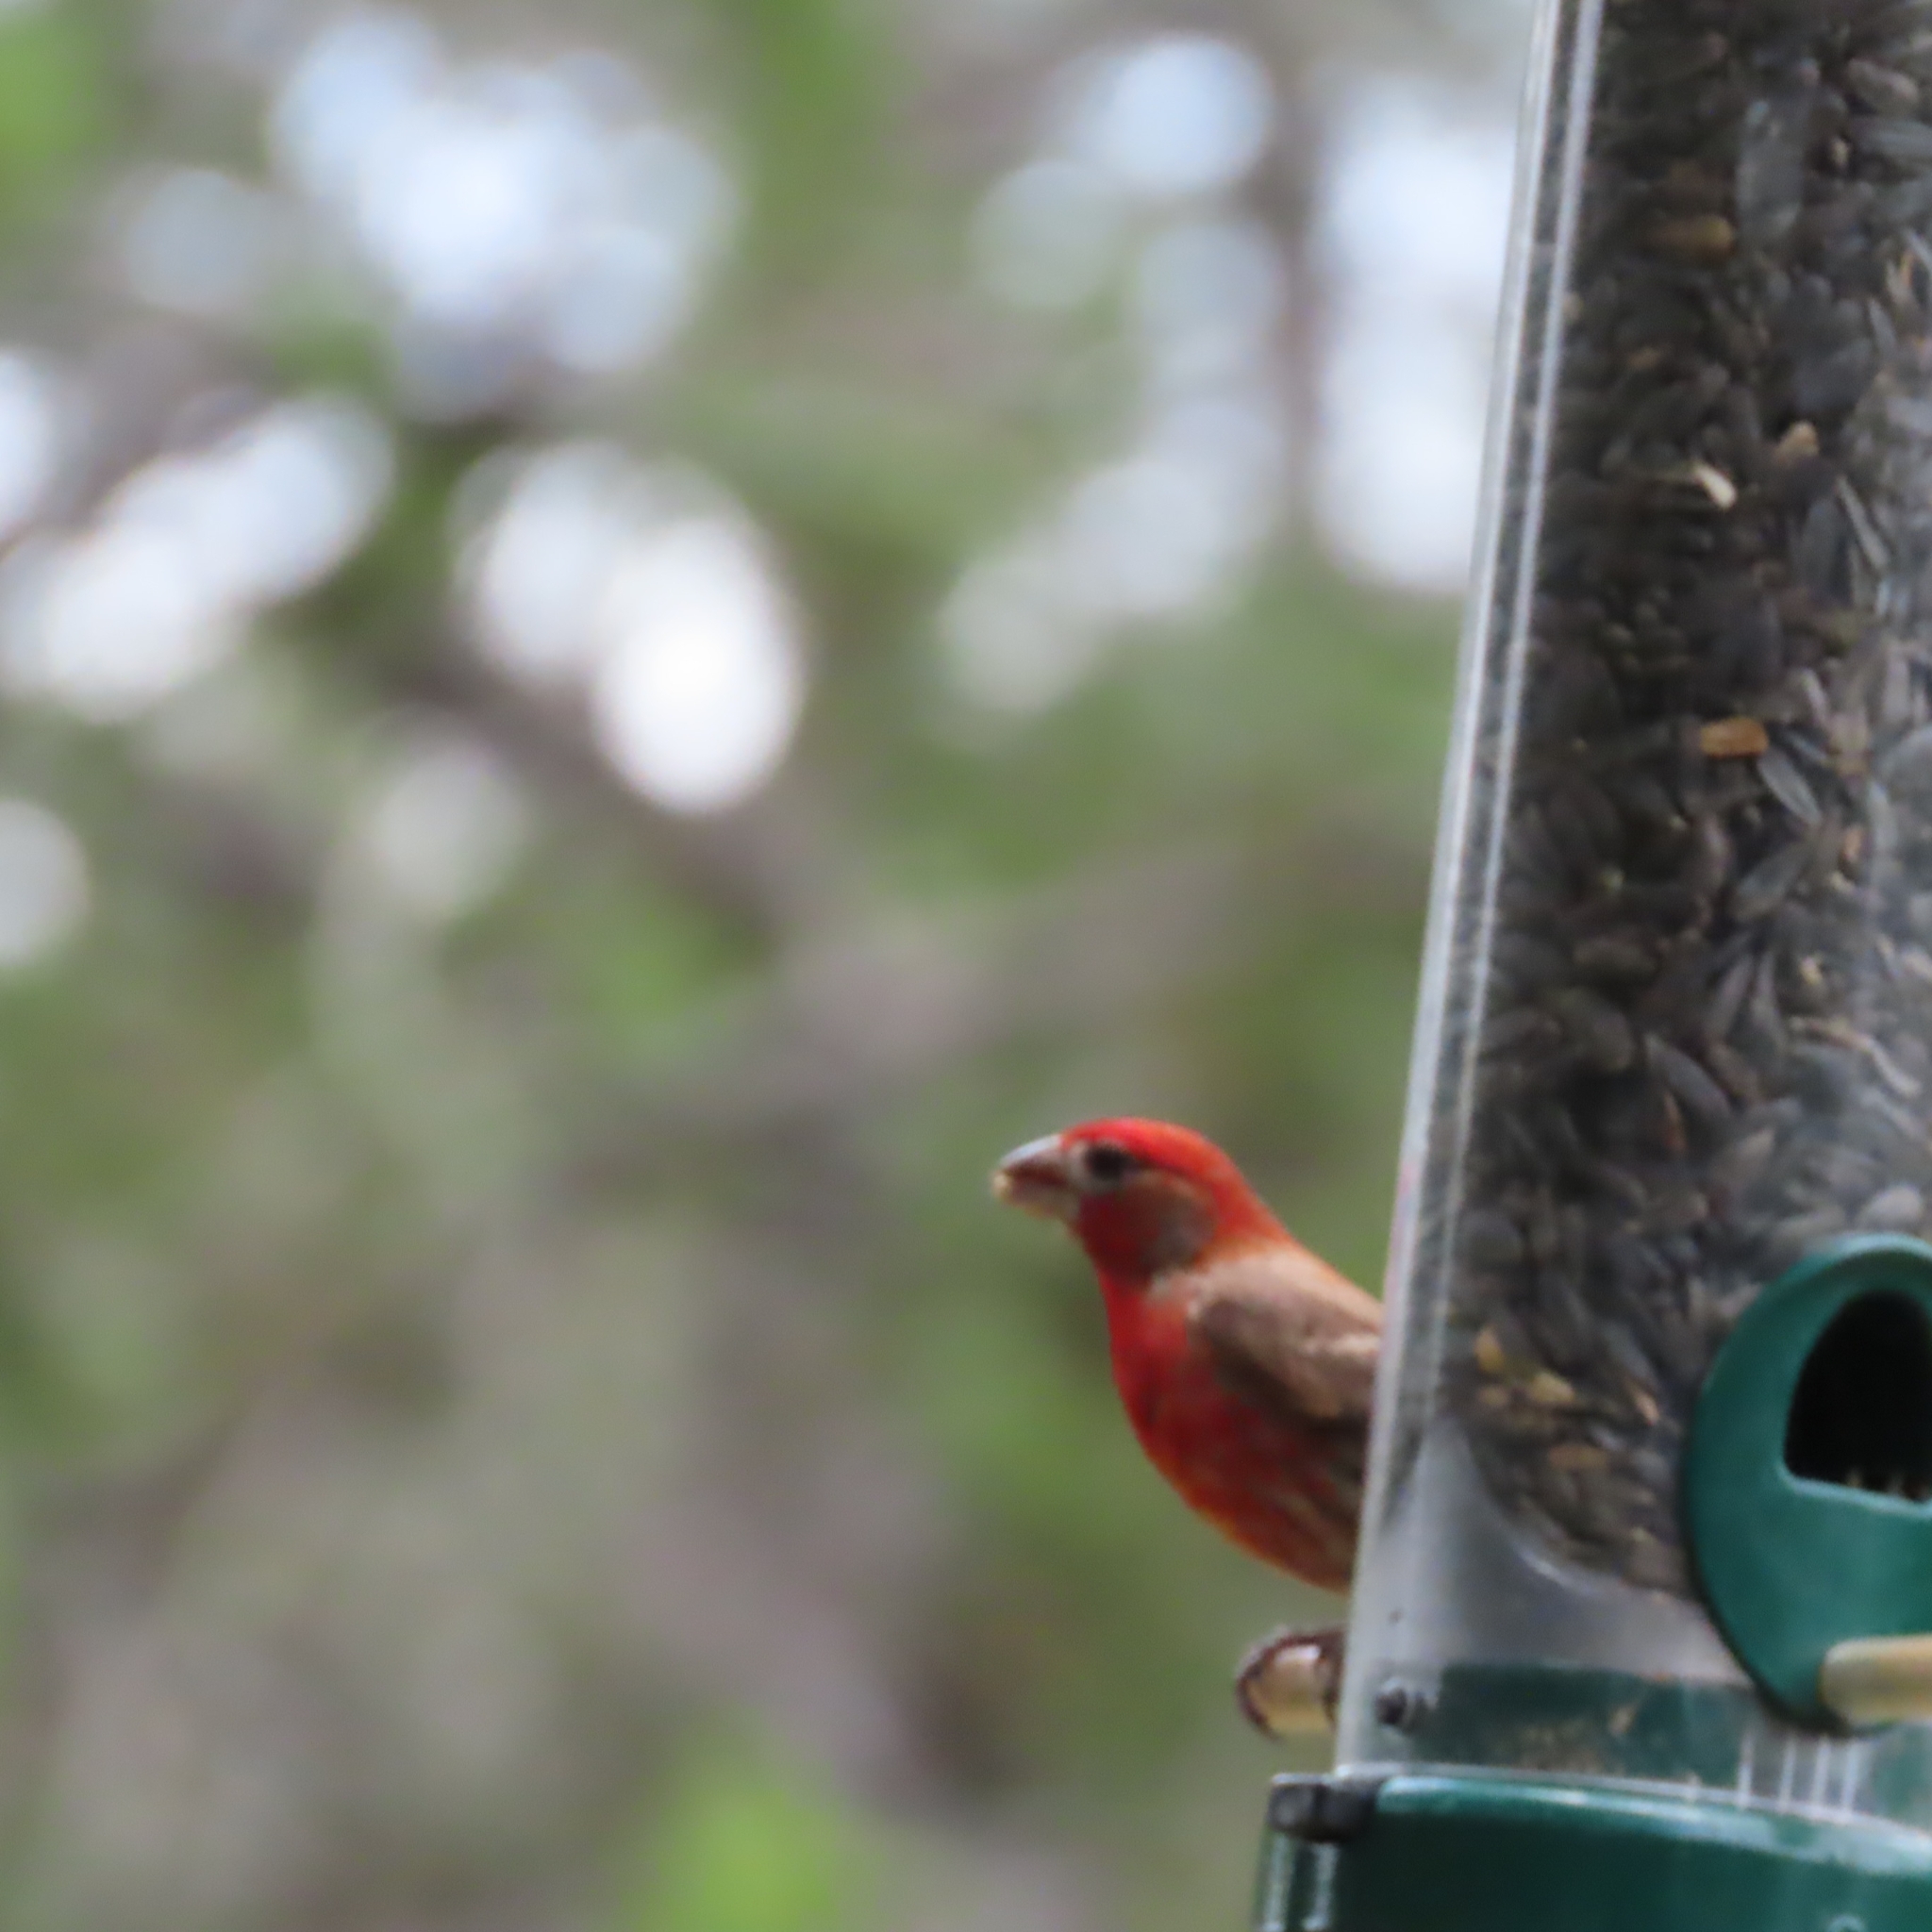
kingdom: Animalia
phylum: Chordata
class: Aves
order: Passeriformes
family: Fringillidae
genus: Haemorhous
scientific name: Haemorhous mexicanus
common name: House finch
